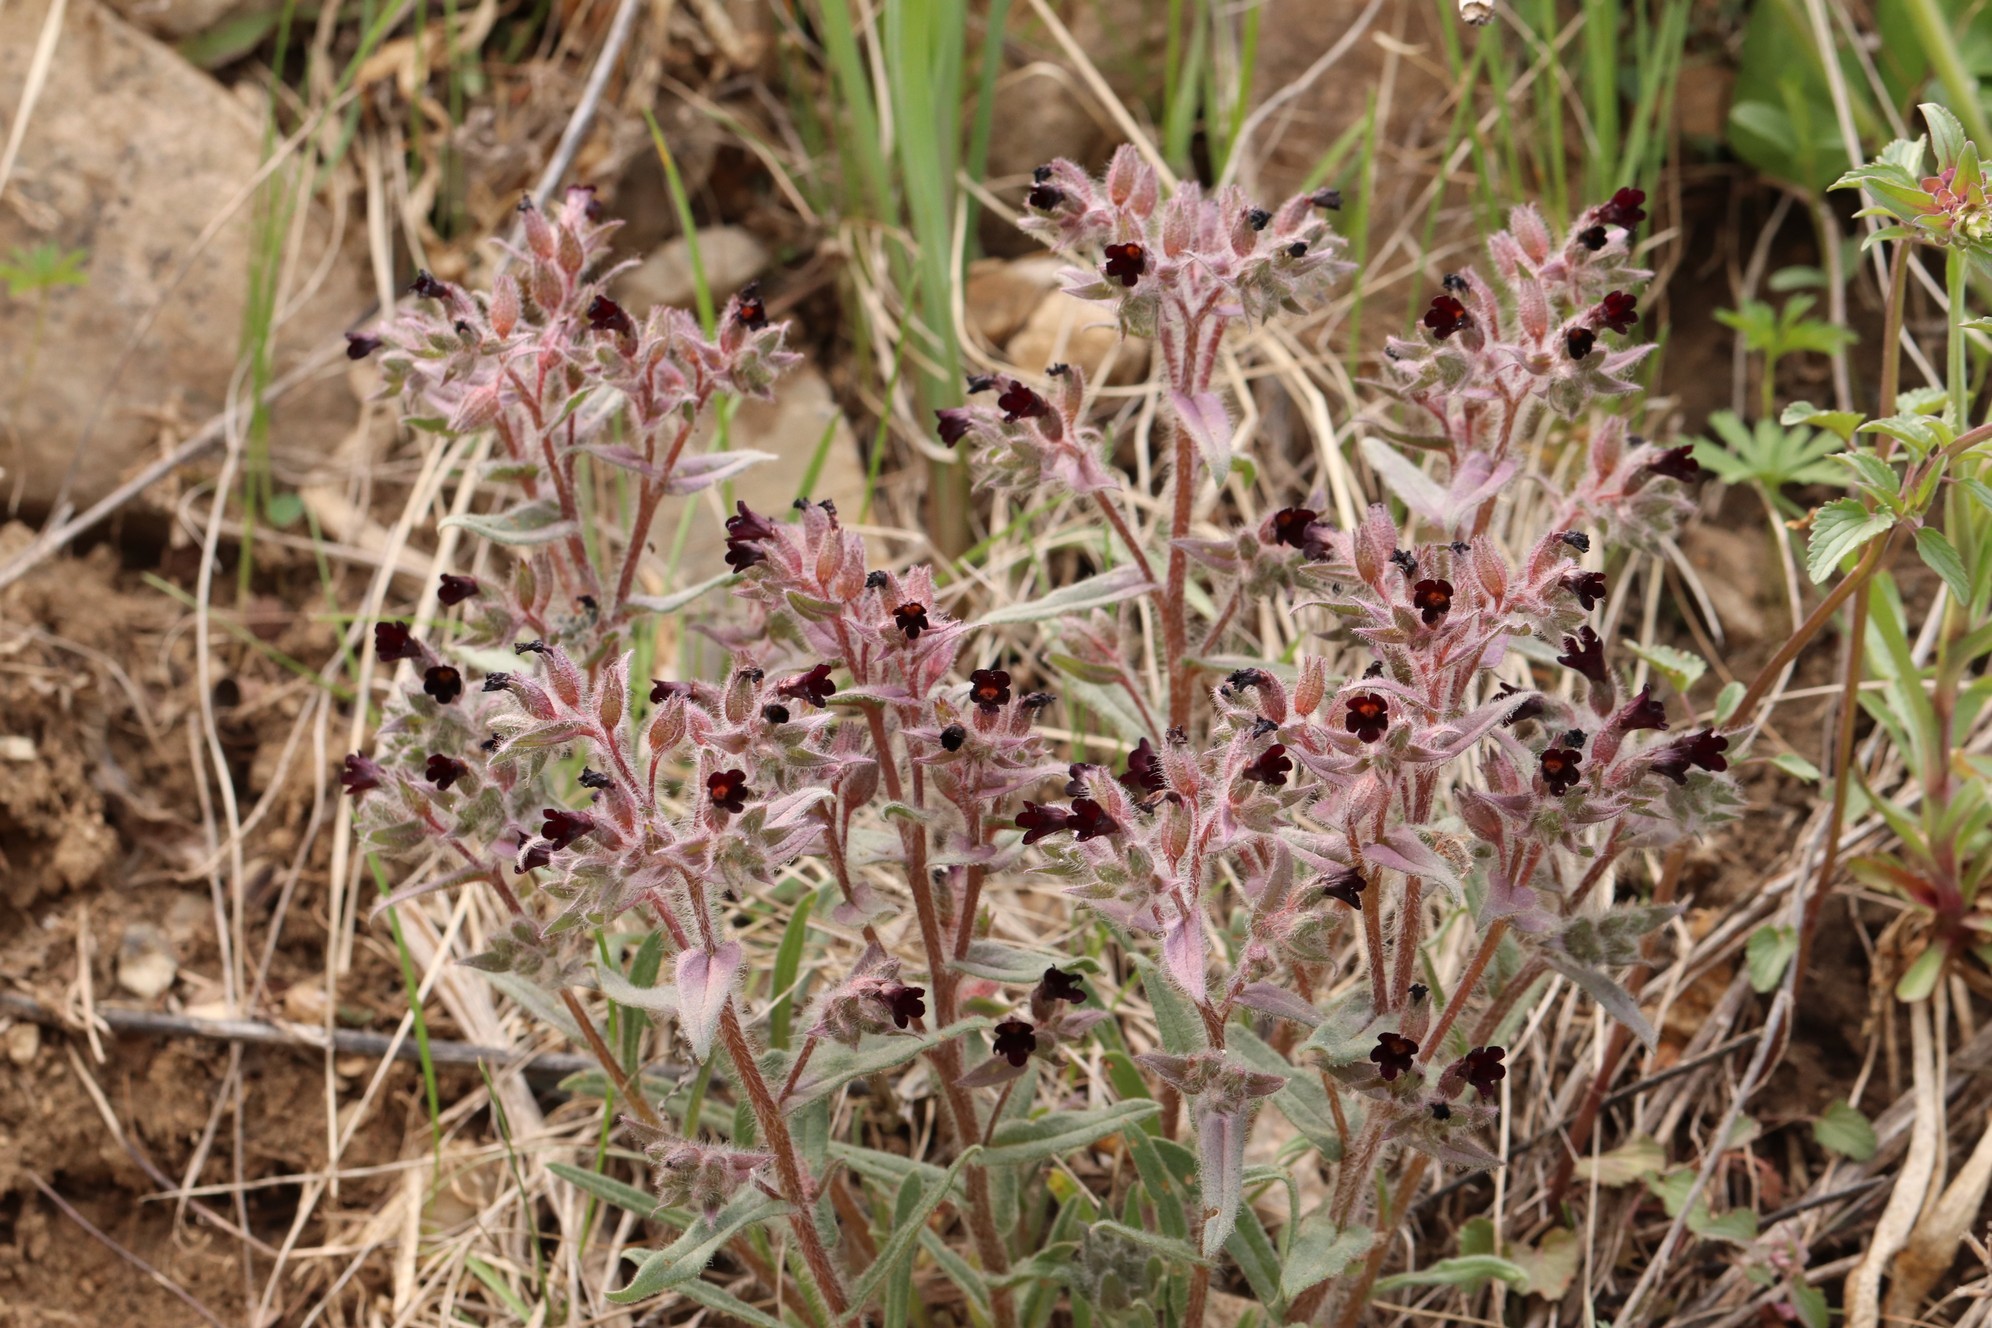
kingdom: Plantae
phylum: Tracheophyta
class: Magnoliopsida
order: Boraginales
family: Boraginaceae
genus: Nonea
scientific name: Nonea pulla
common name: Brown nonea
